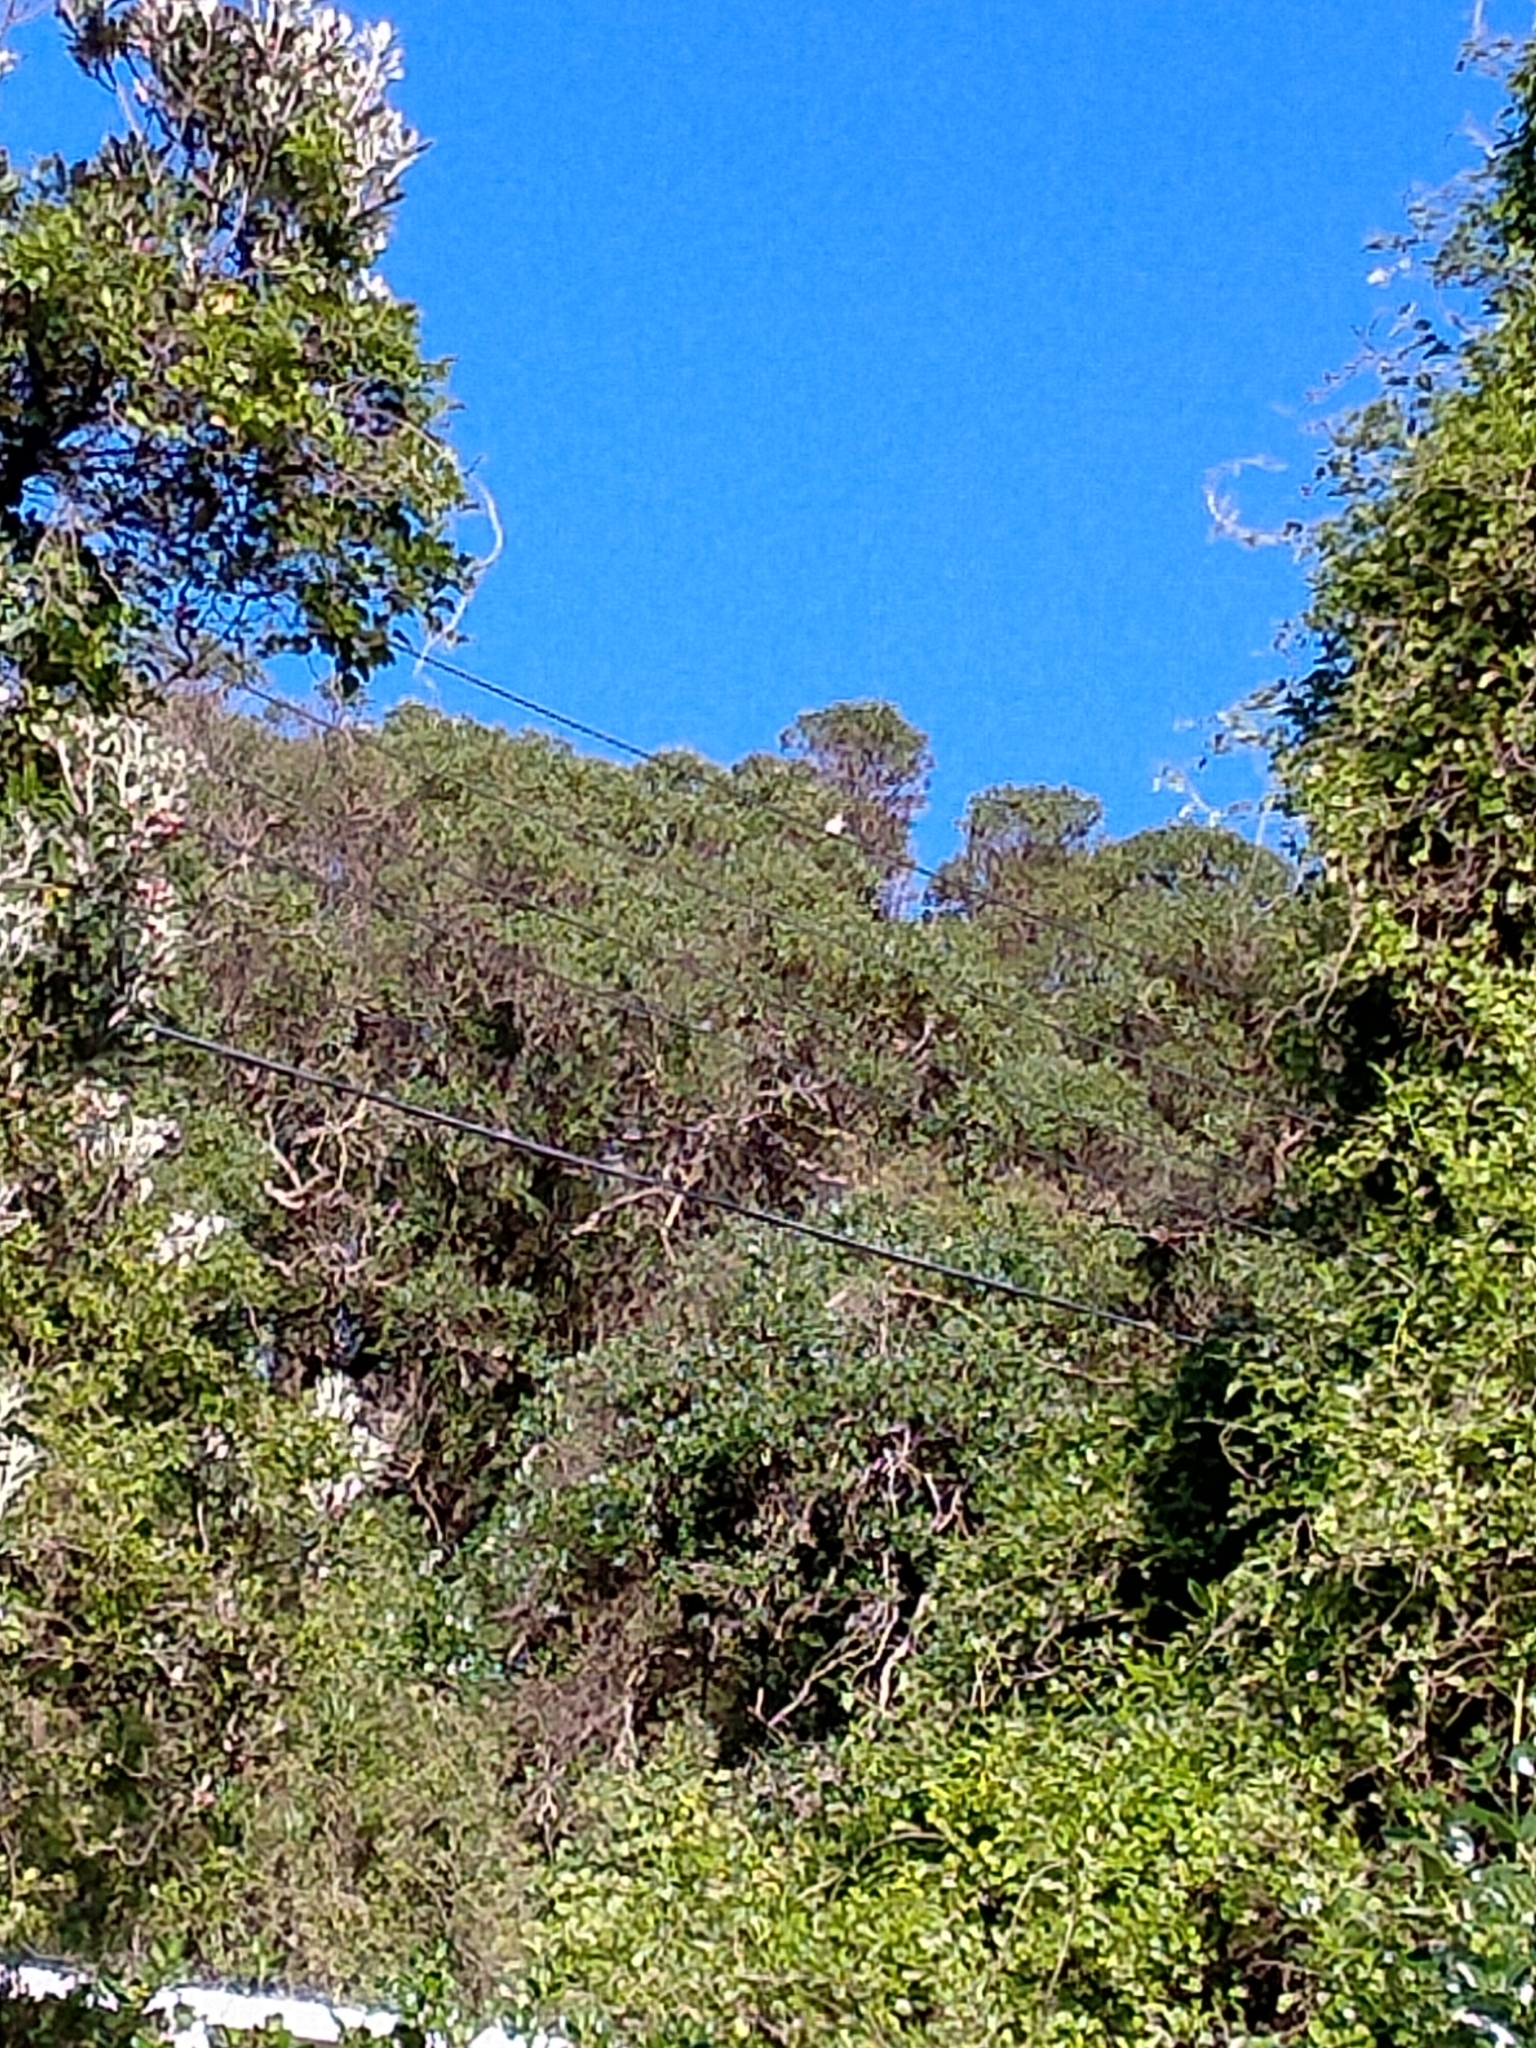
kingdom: Animalia
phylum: Chordata
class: Aves
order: Coraciiformes
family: Alcedinidae
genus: Todiramphus
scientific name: Todiramphus sanctus
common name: Sacred kingfisher
